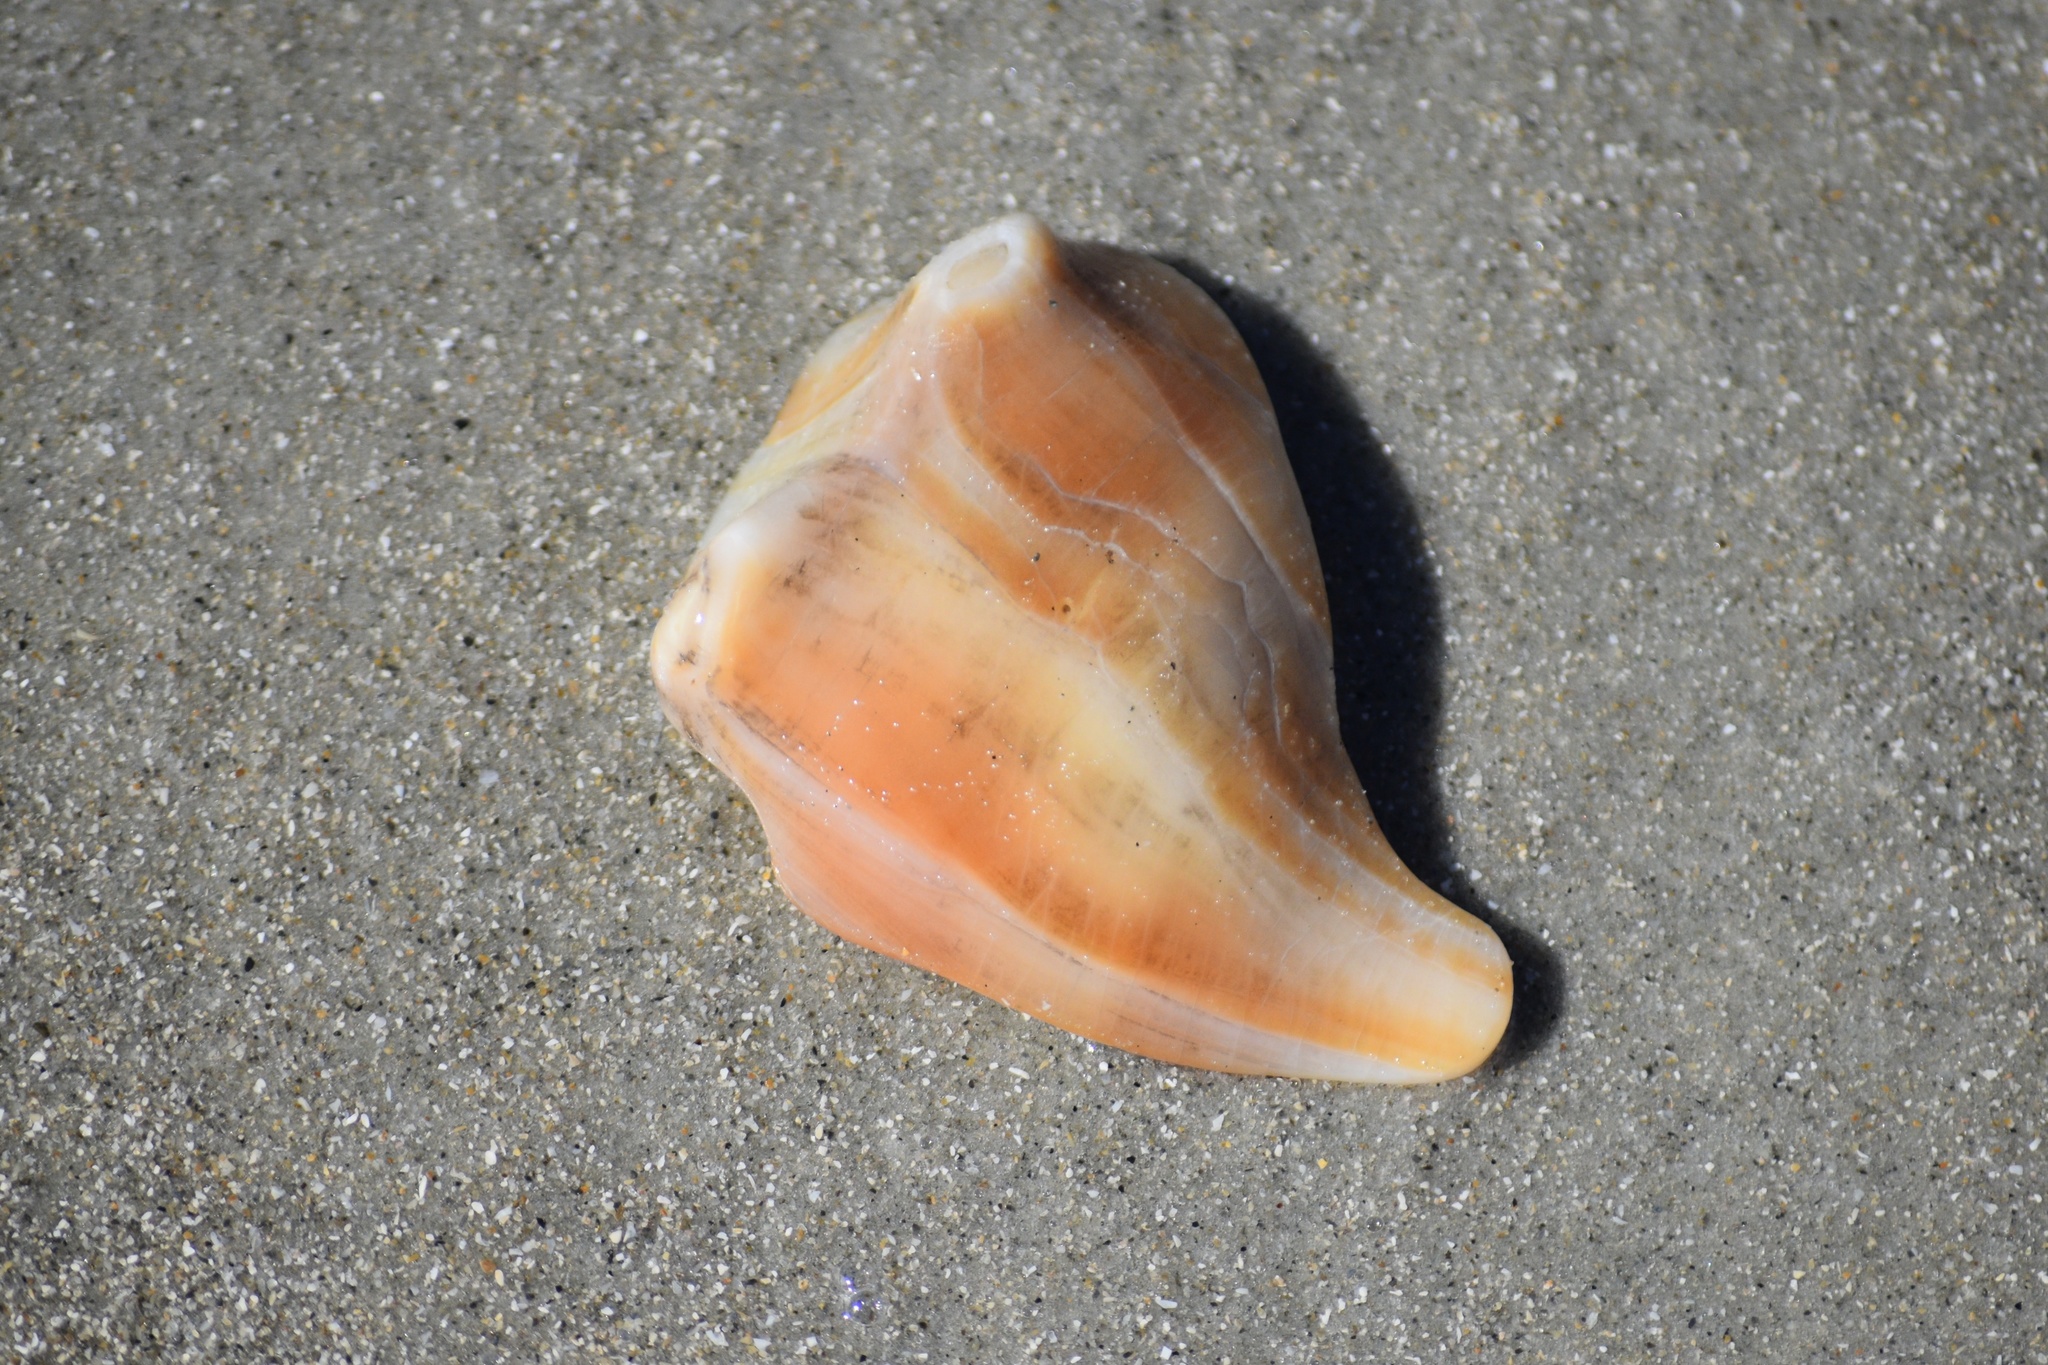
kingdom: Animalia
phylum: Mollusca
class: Gastropoda
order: Neogastropoda
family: Busyconidae
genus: Busycon
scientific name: Busycon carica
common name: Knobbed whelk
